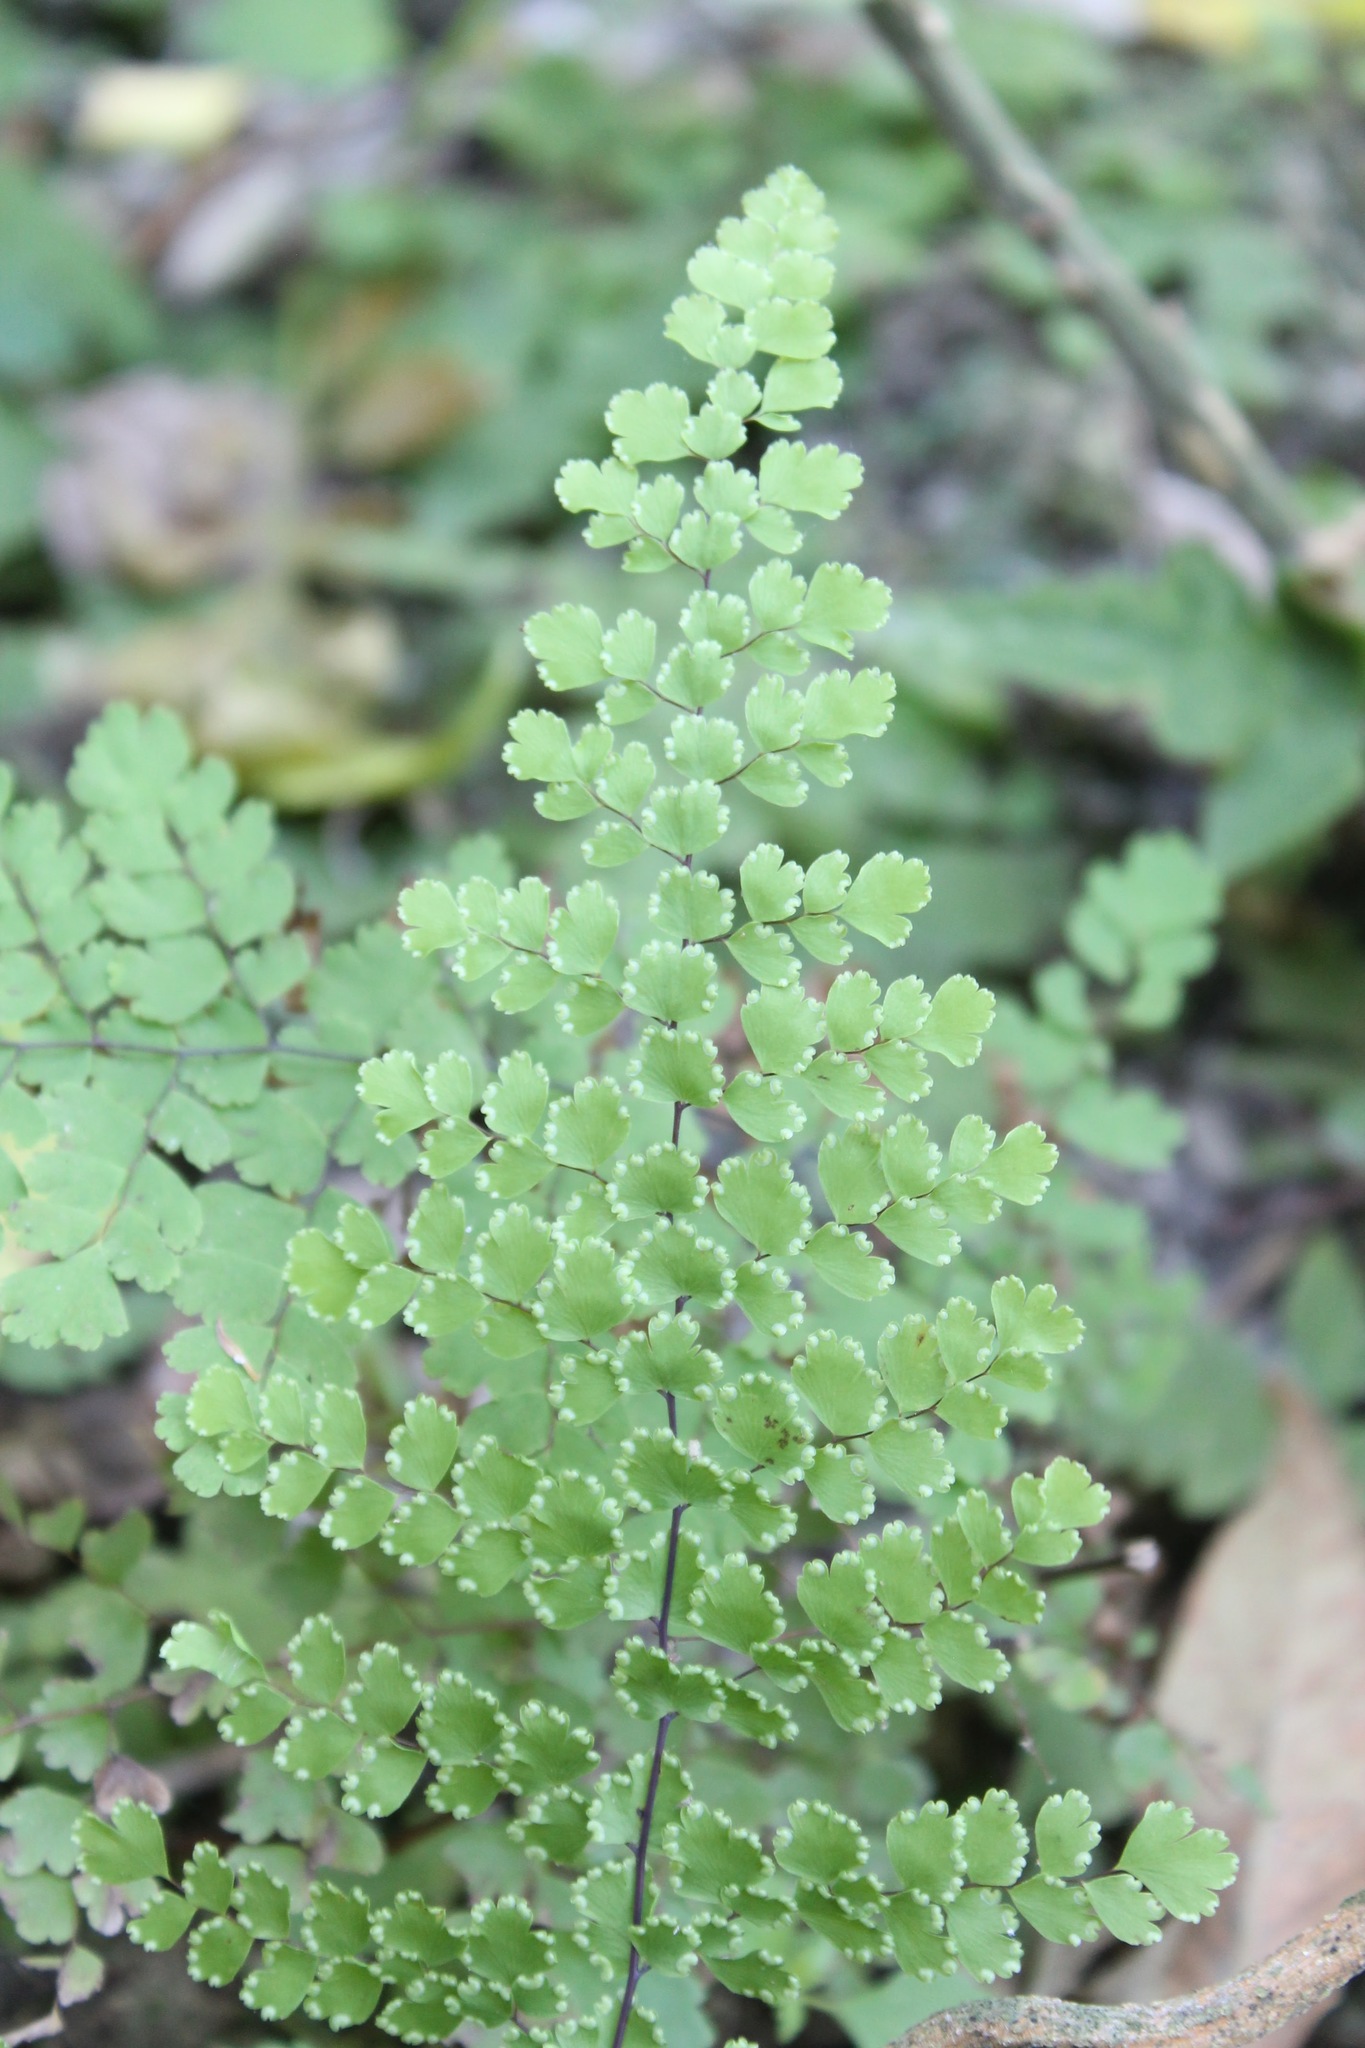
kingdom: Plantae
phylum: Tracheophyta
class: Polypodiopsida
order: Polypodiales
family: Pteridaceae
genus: Adiantum
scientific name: Adiantum concinnum
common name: Brittle maidenhair fern
